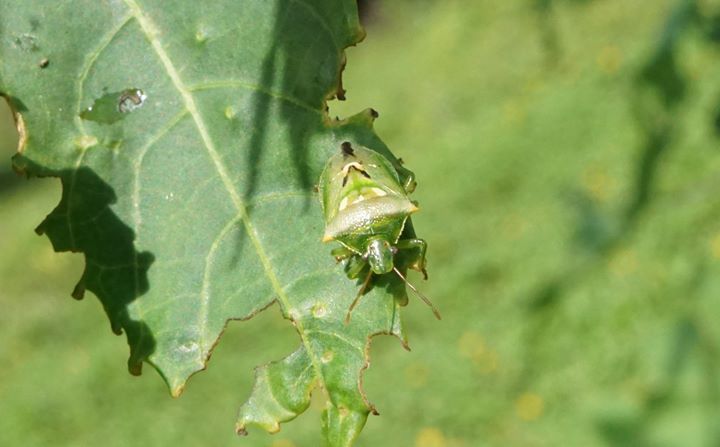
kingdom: Animalia
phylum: Arthropoda
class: Insecta
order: Hemiptera
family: Pentatomidae
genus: Tylospilus
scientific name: Tylospilus acutissimus
